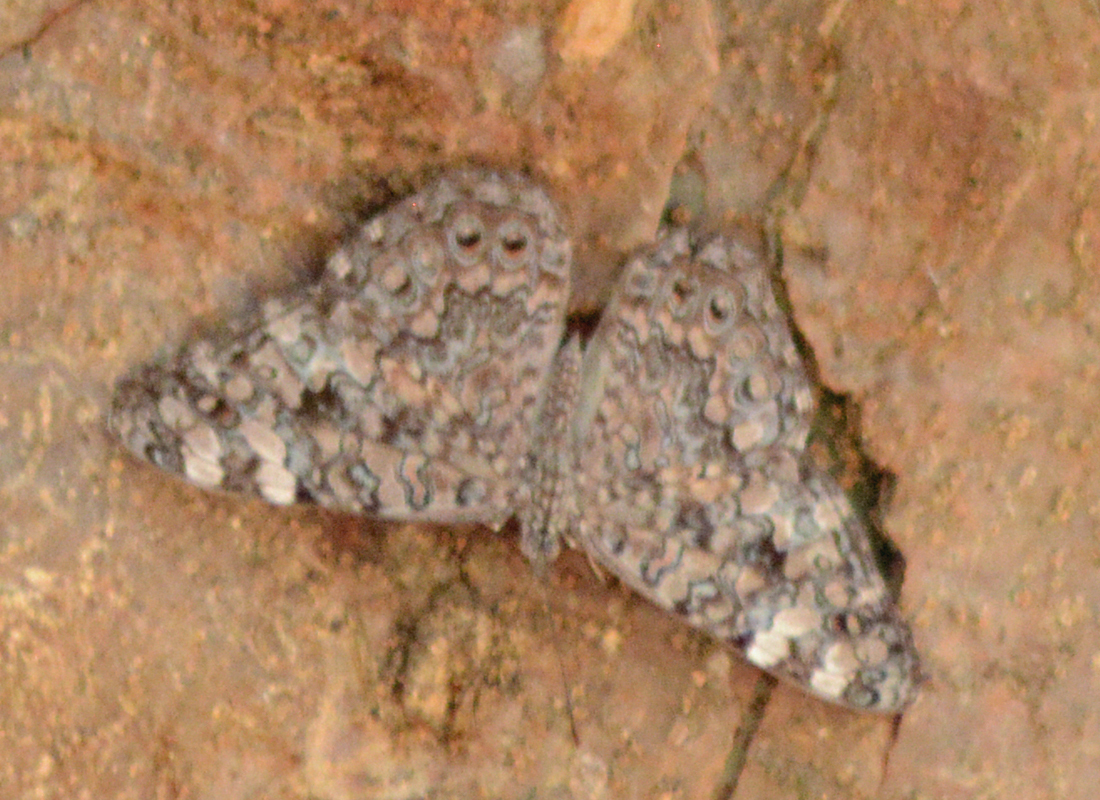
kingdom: Animalia
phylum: Arthropoda
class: Insecta
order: Lepidoptera
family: Nymphalidae
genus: Hamadryas
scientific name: Hamadryas februa
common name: Gray cracker
